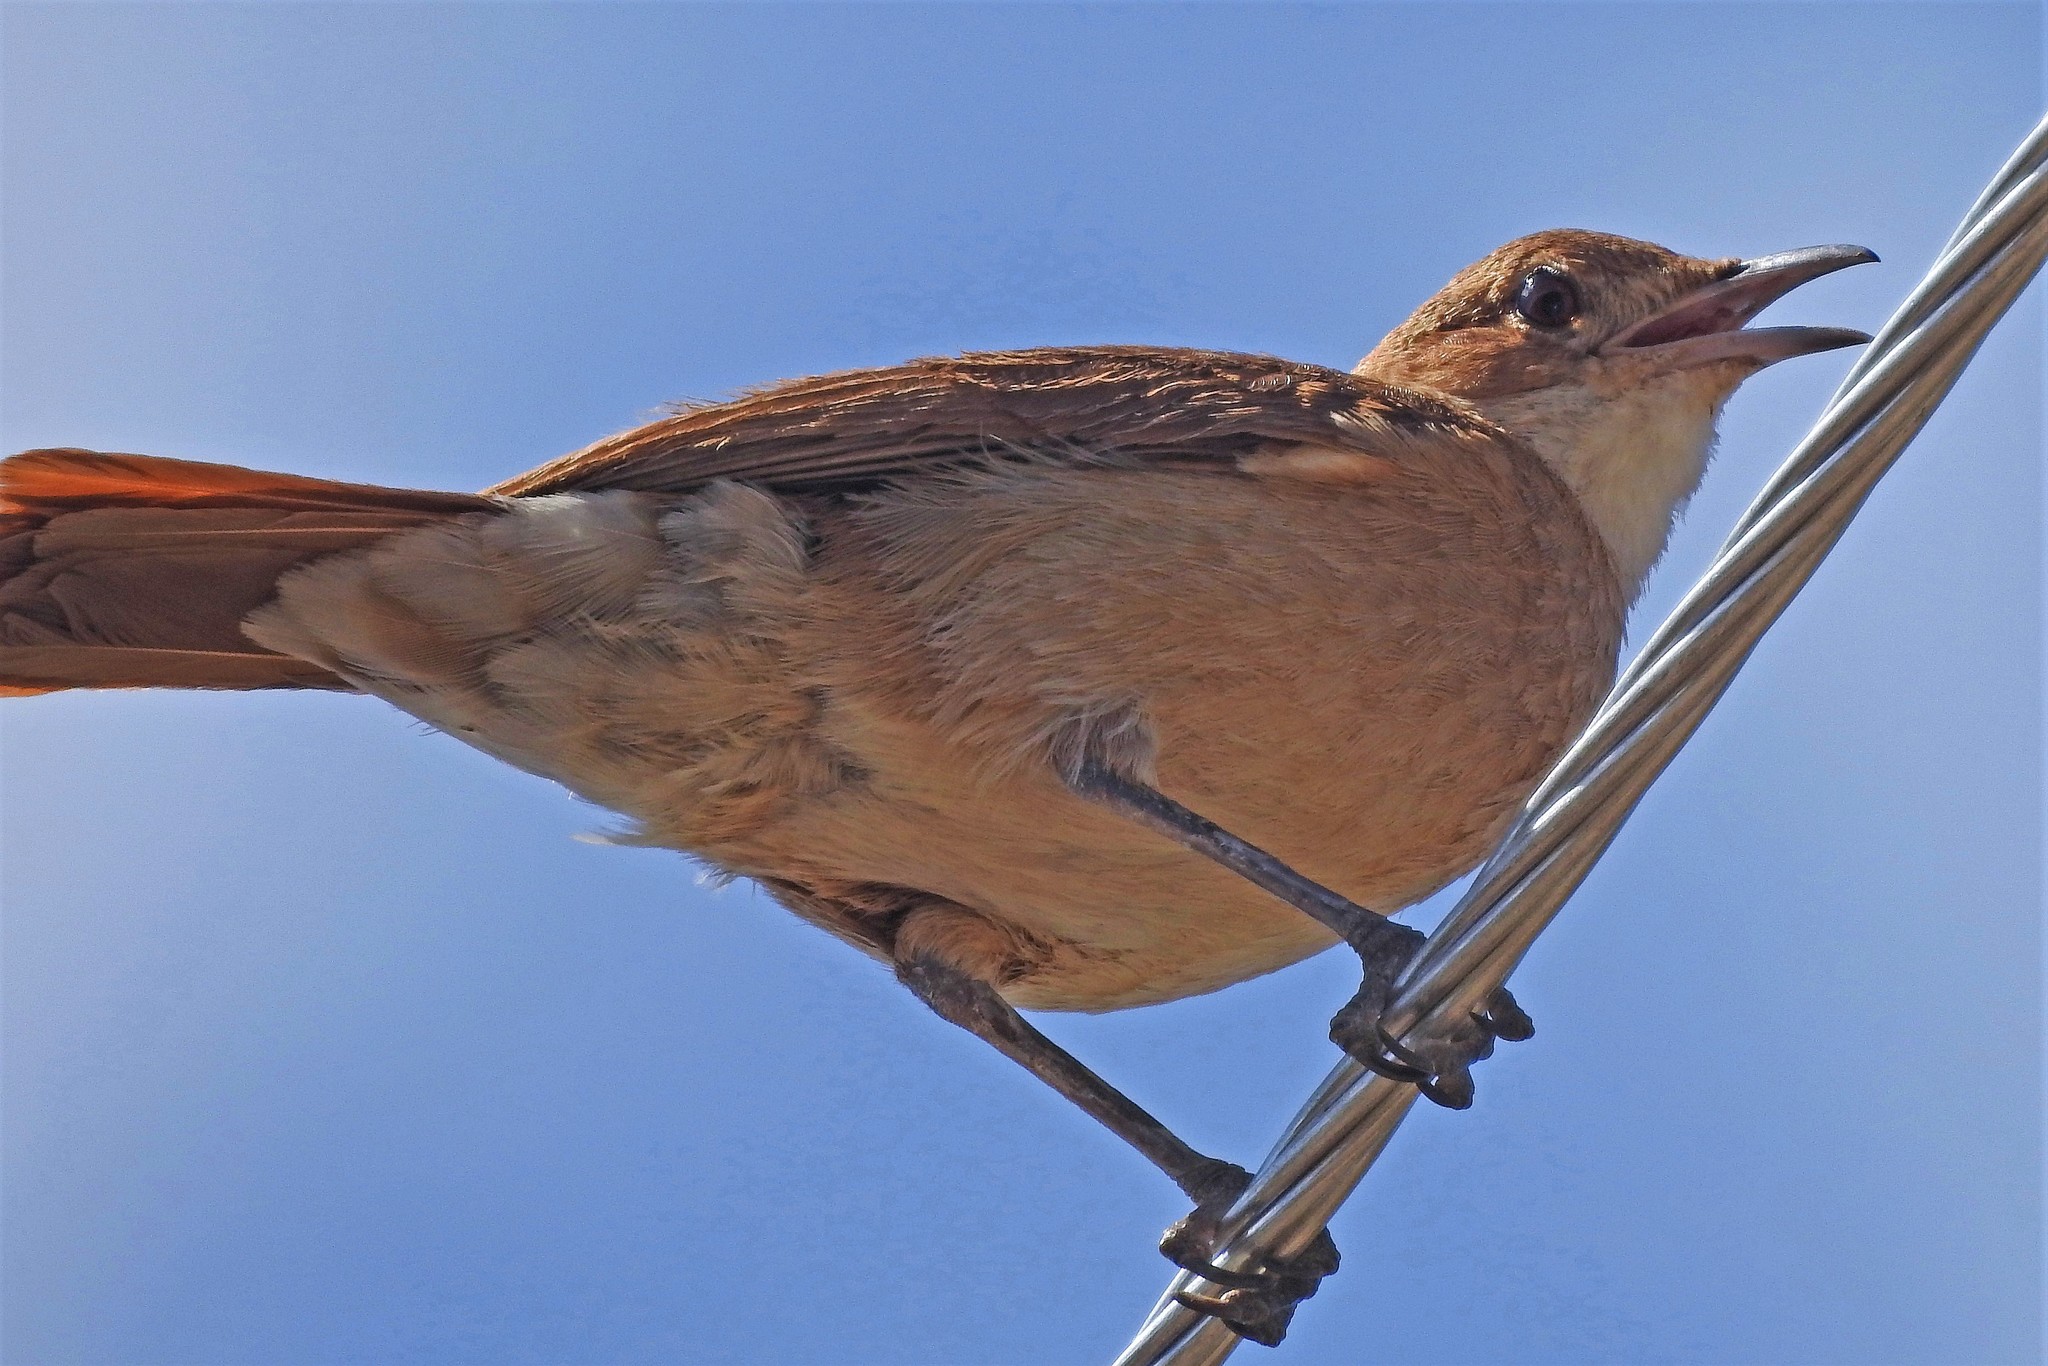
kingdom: Animalia
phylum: Chordata
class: Aves
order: Passeriformes
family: Furnariidae
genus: Furnarius
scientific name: Furnarius rufus
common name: Rufous hornero
